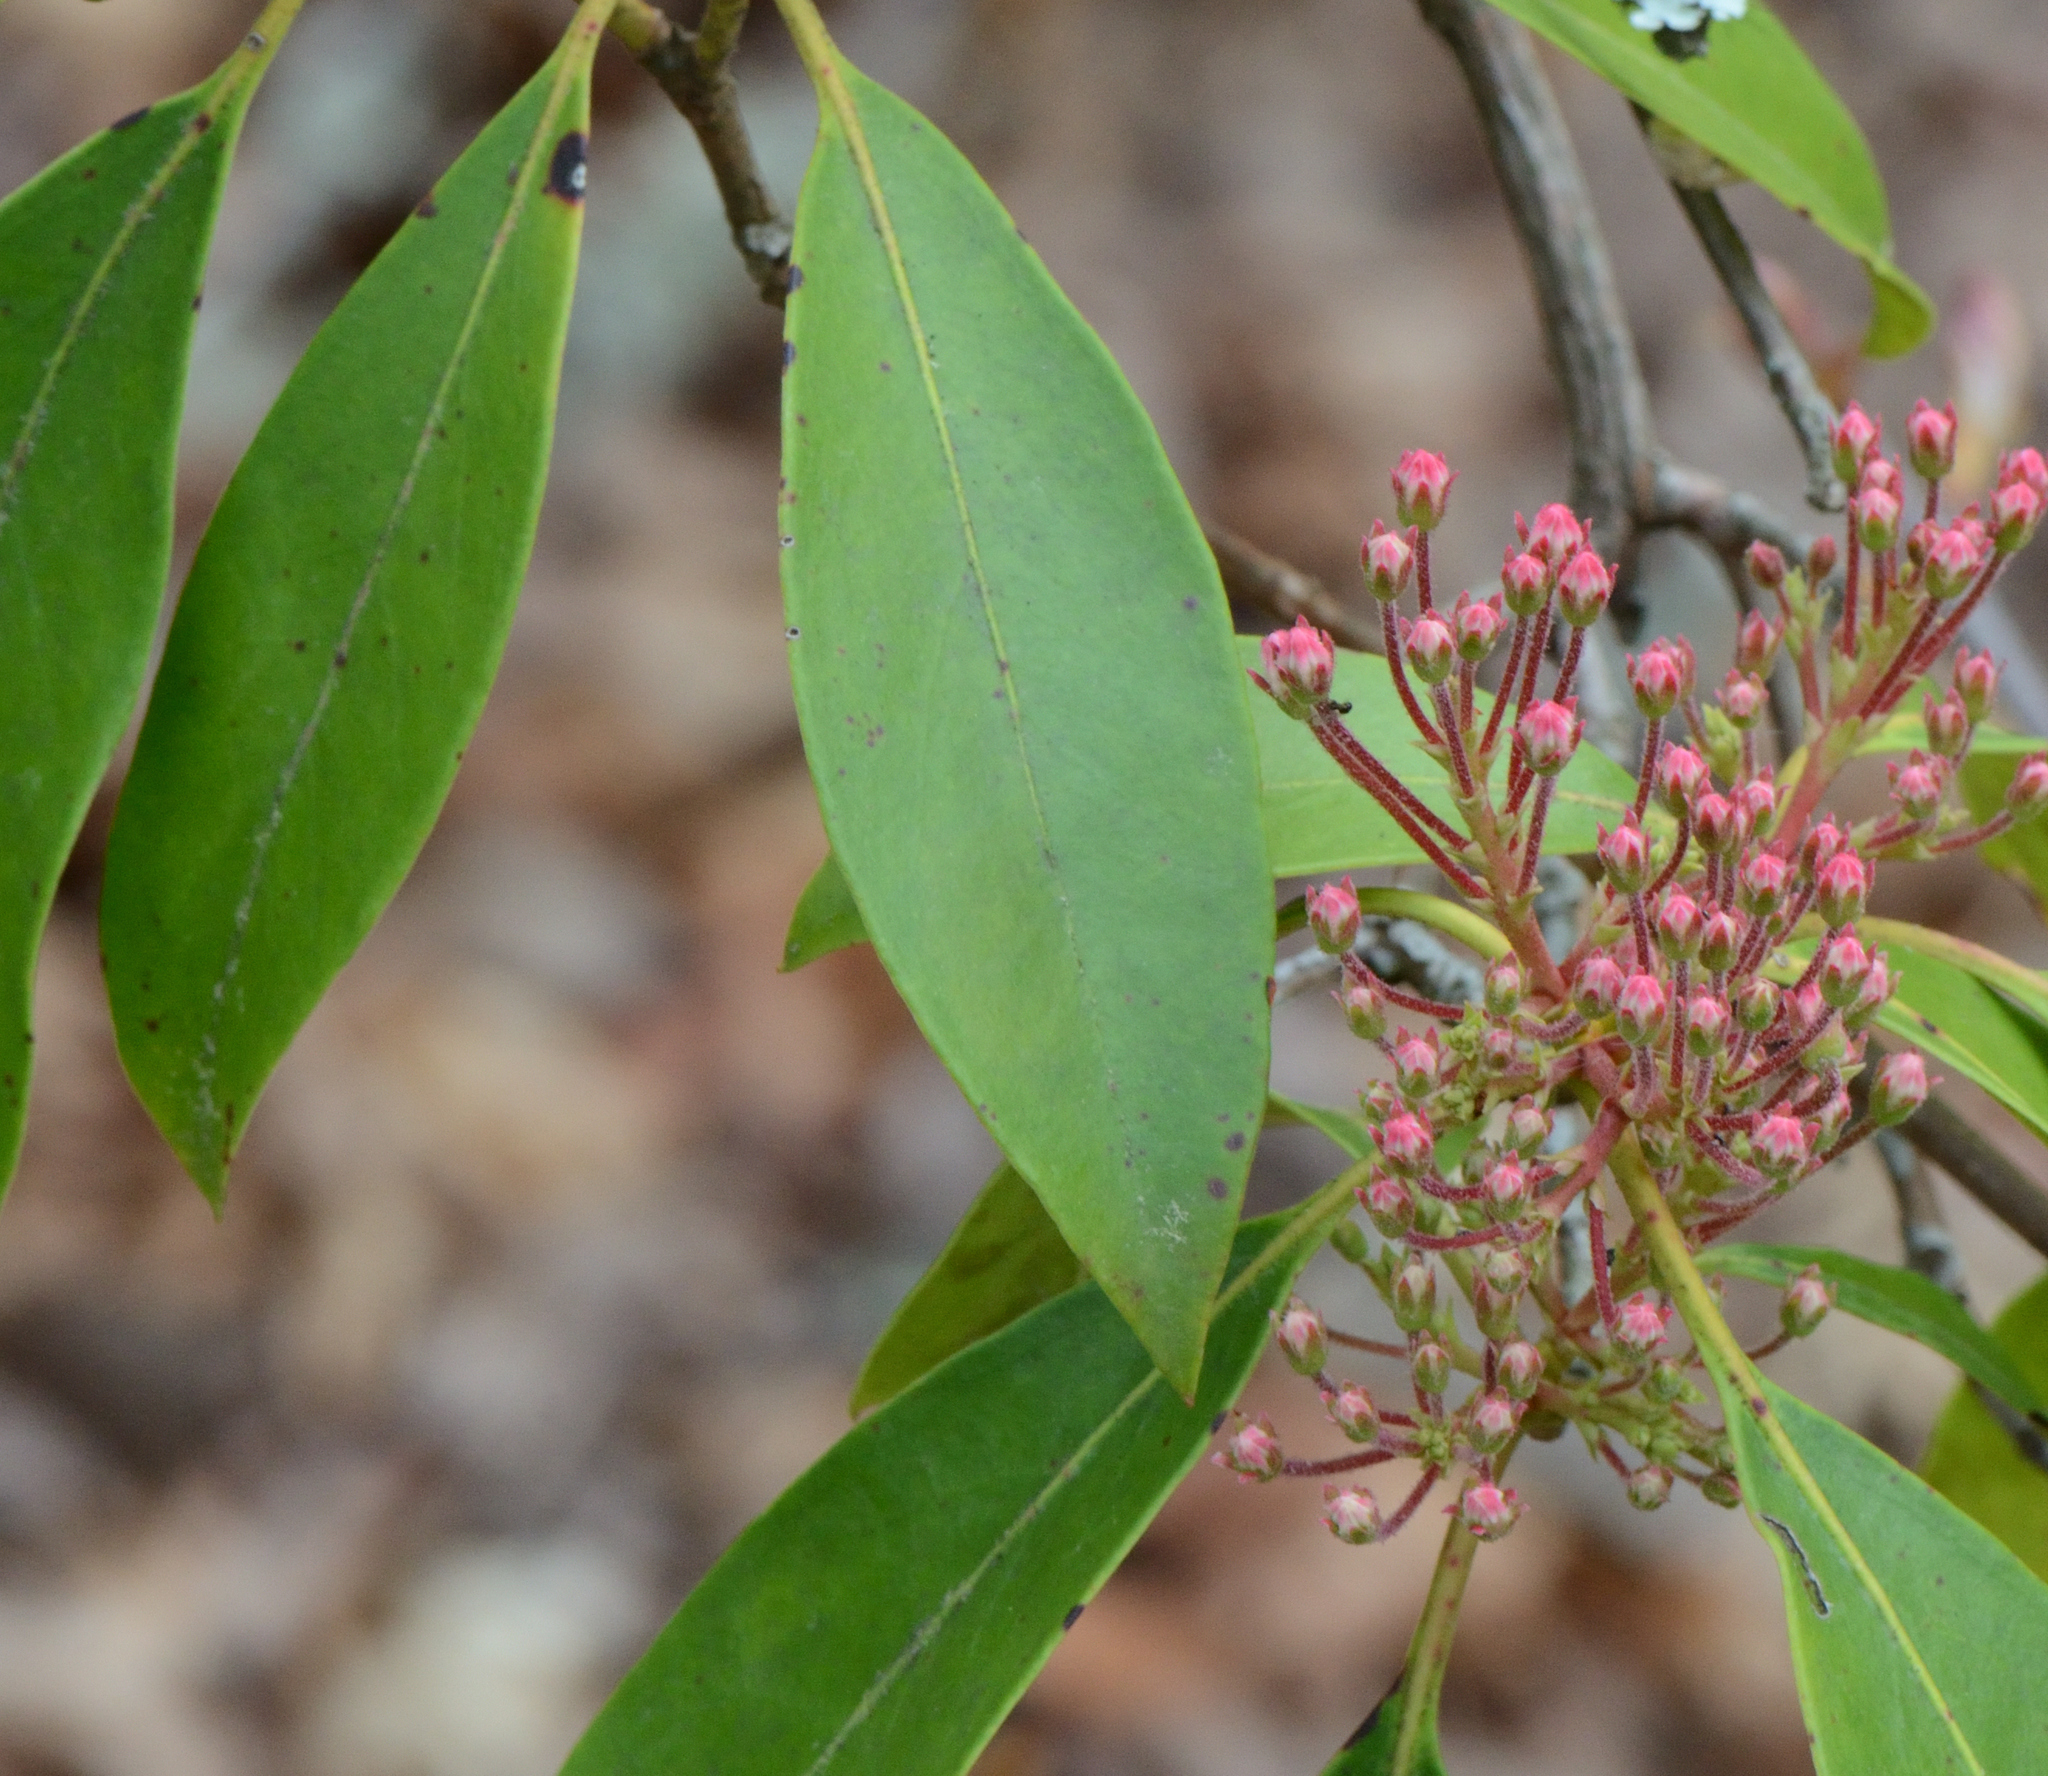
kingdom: Plantae
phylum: Tracheophyta
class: Magnoliopsida
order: Ericales
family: Ericaceae
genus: Kalmia
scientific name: Kalmia latifolia
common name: Mountain-laurel
